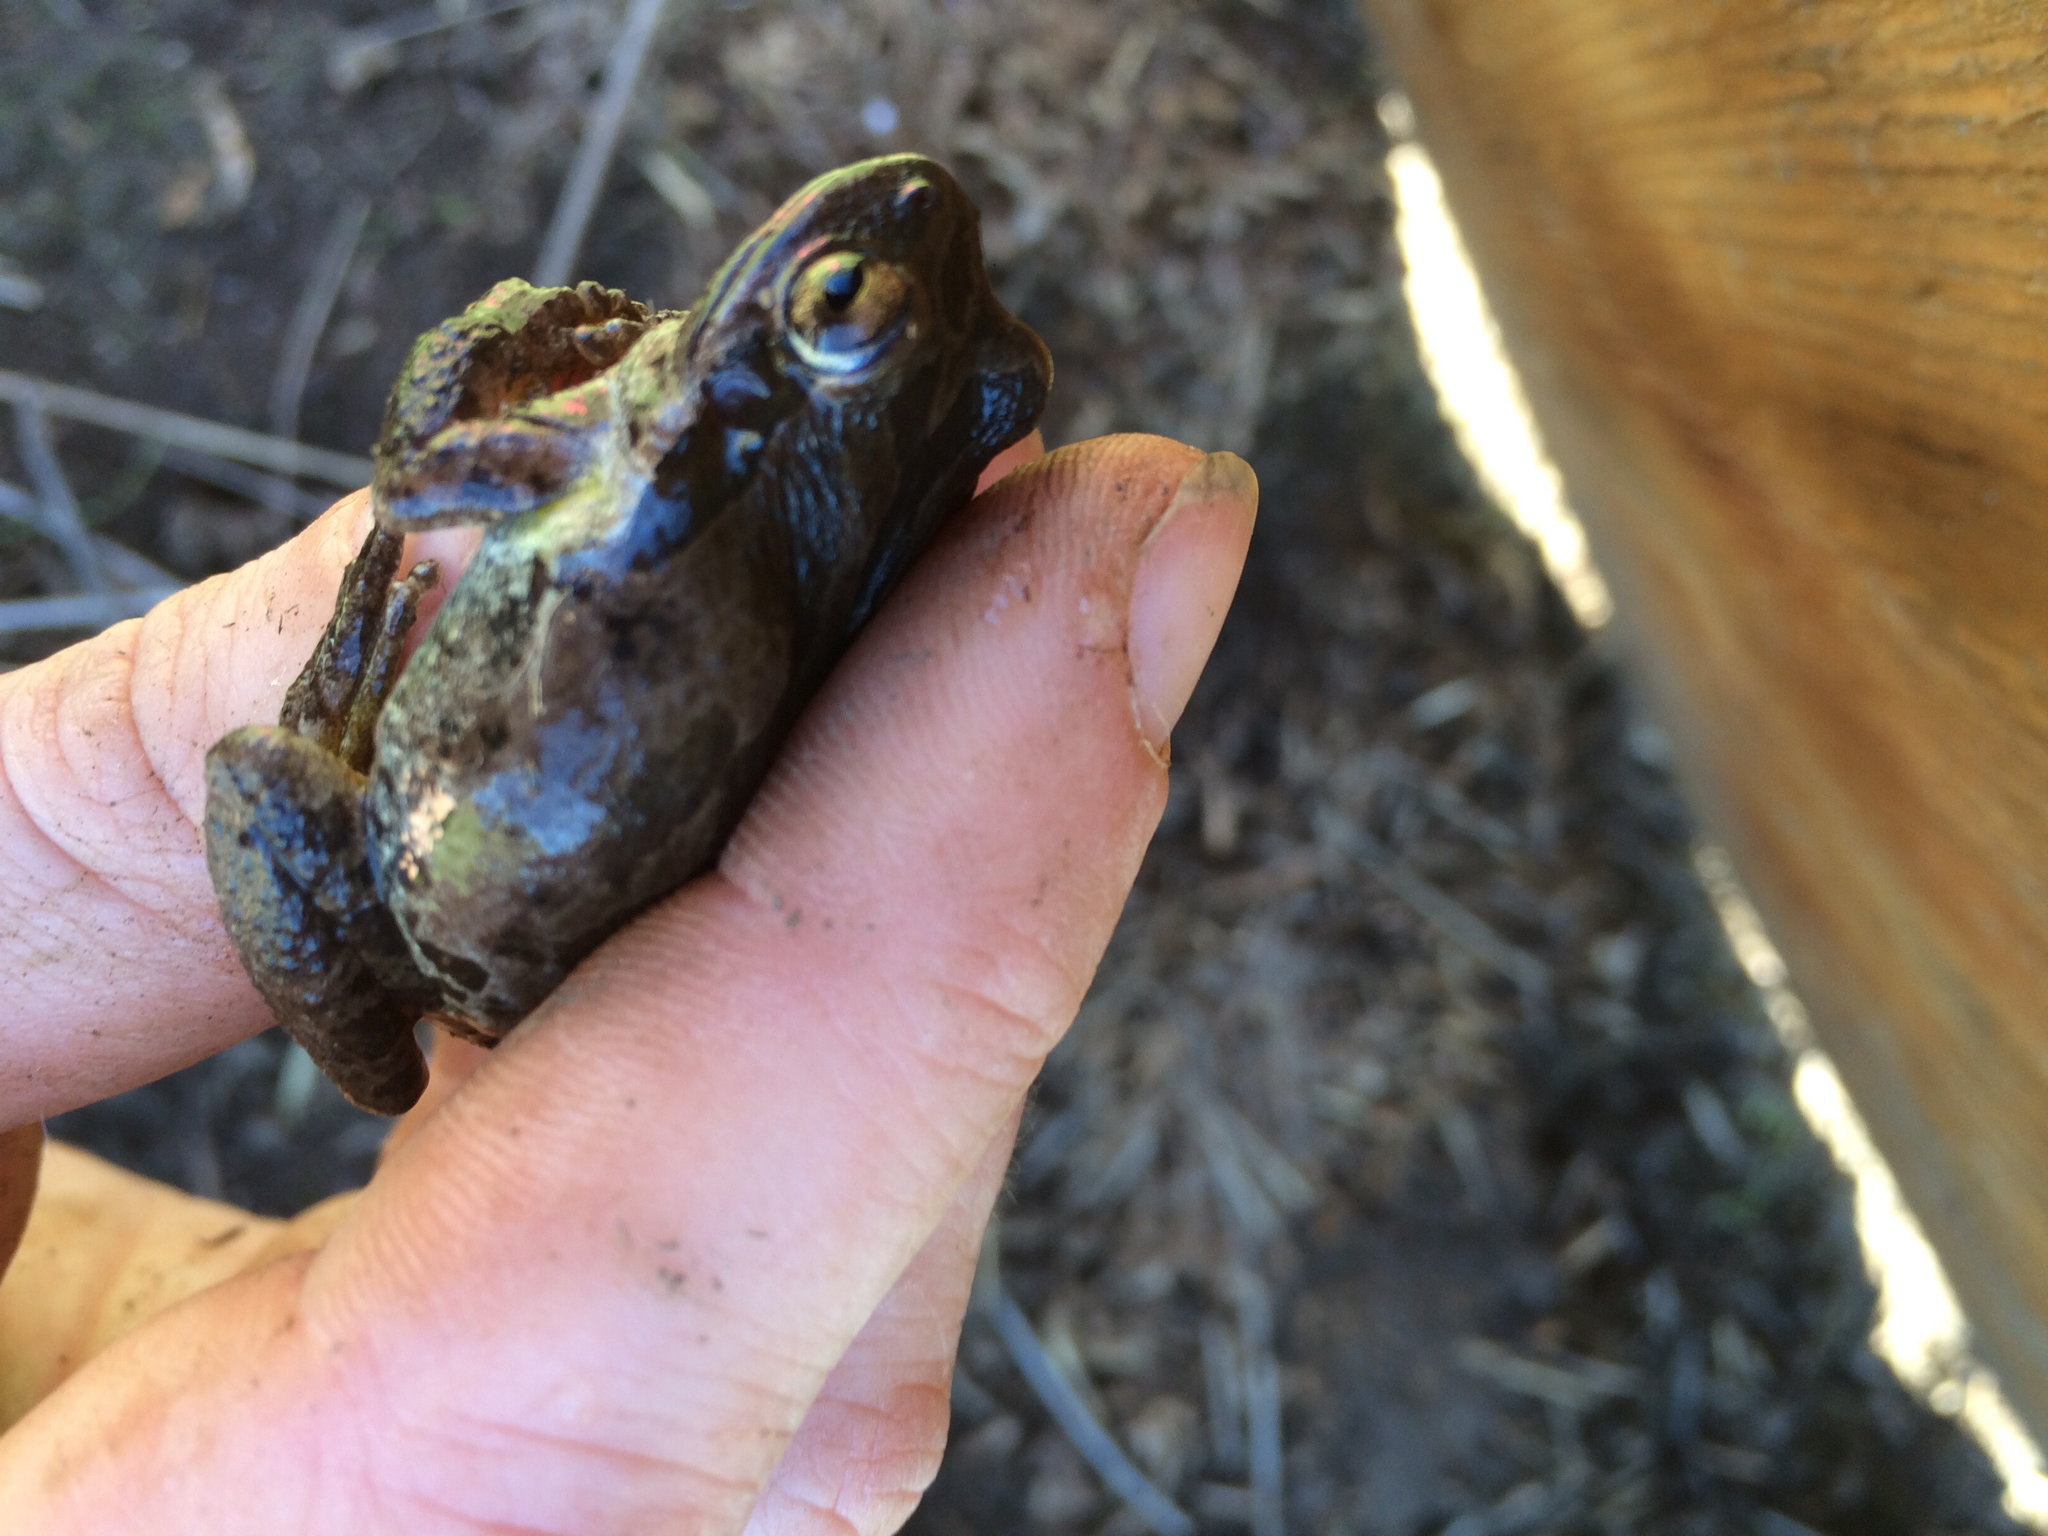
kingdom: Animalia
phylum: Chordata
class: Amphibia
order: Anura
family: Hylidae
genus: Pseudacris
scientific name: Pseudacris regilla
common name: Pacific chorus frog
